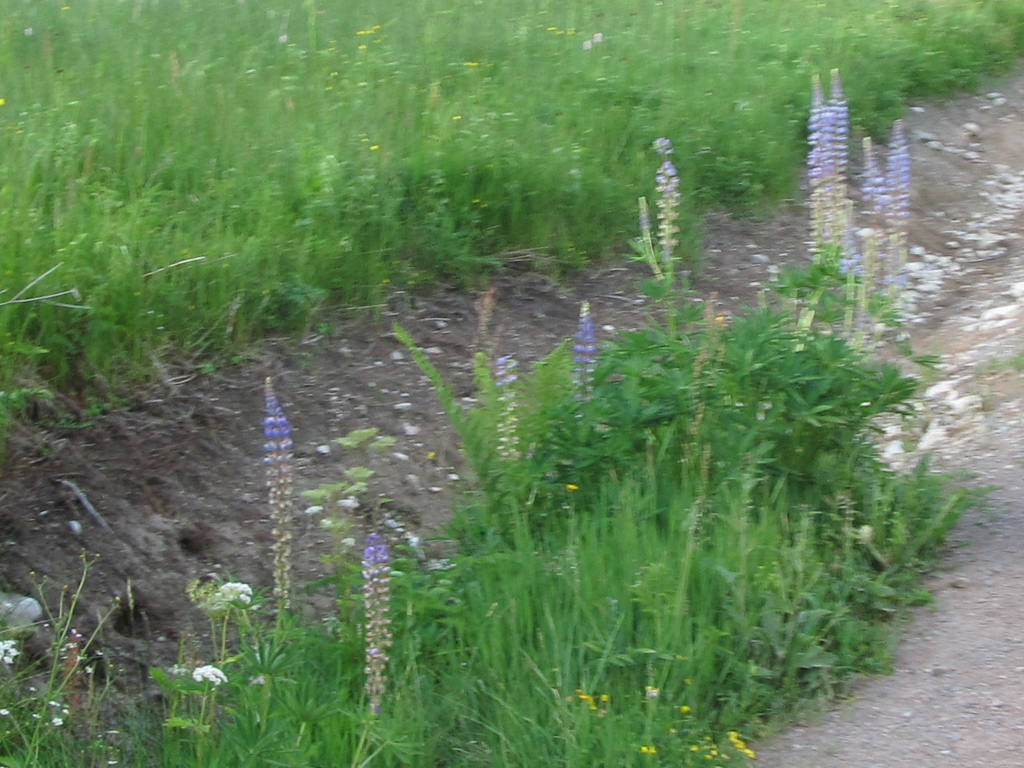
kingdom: Plantae
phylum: Tracheophyta
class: Magnoliopsida
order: Fabales
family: Fabaceae
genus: Lupinus
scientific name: Lupinus polyphyllus
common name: Garden lupin
